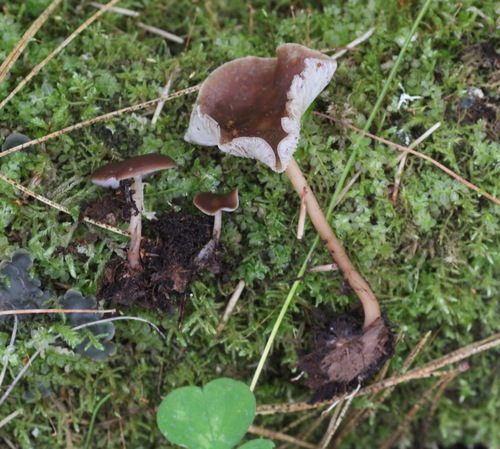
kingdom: Fungi
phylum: Basidiomycota
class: Agaricomycetes
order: Agaricales
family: Omphalotaceae
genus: Gymnopus
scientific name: Gymnopus ocior
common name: Spring toughshank
